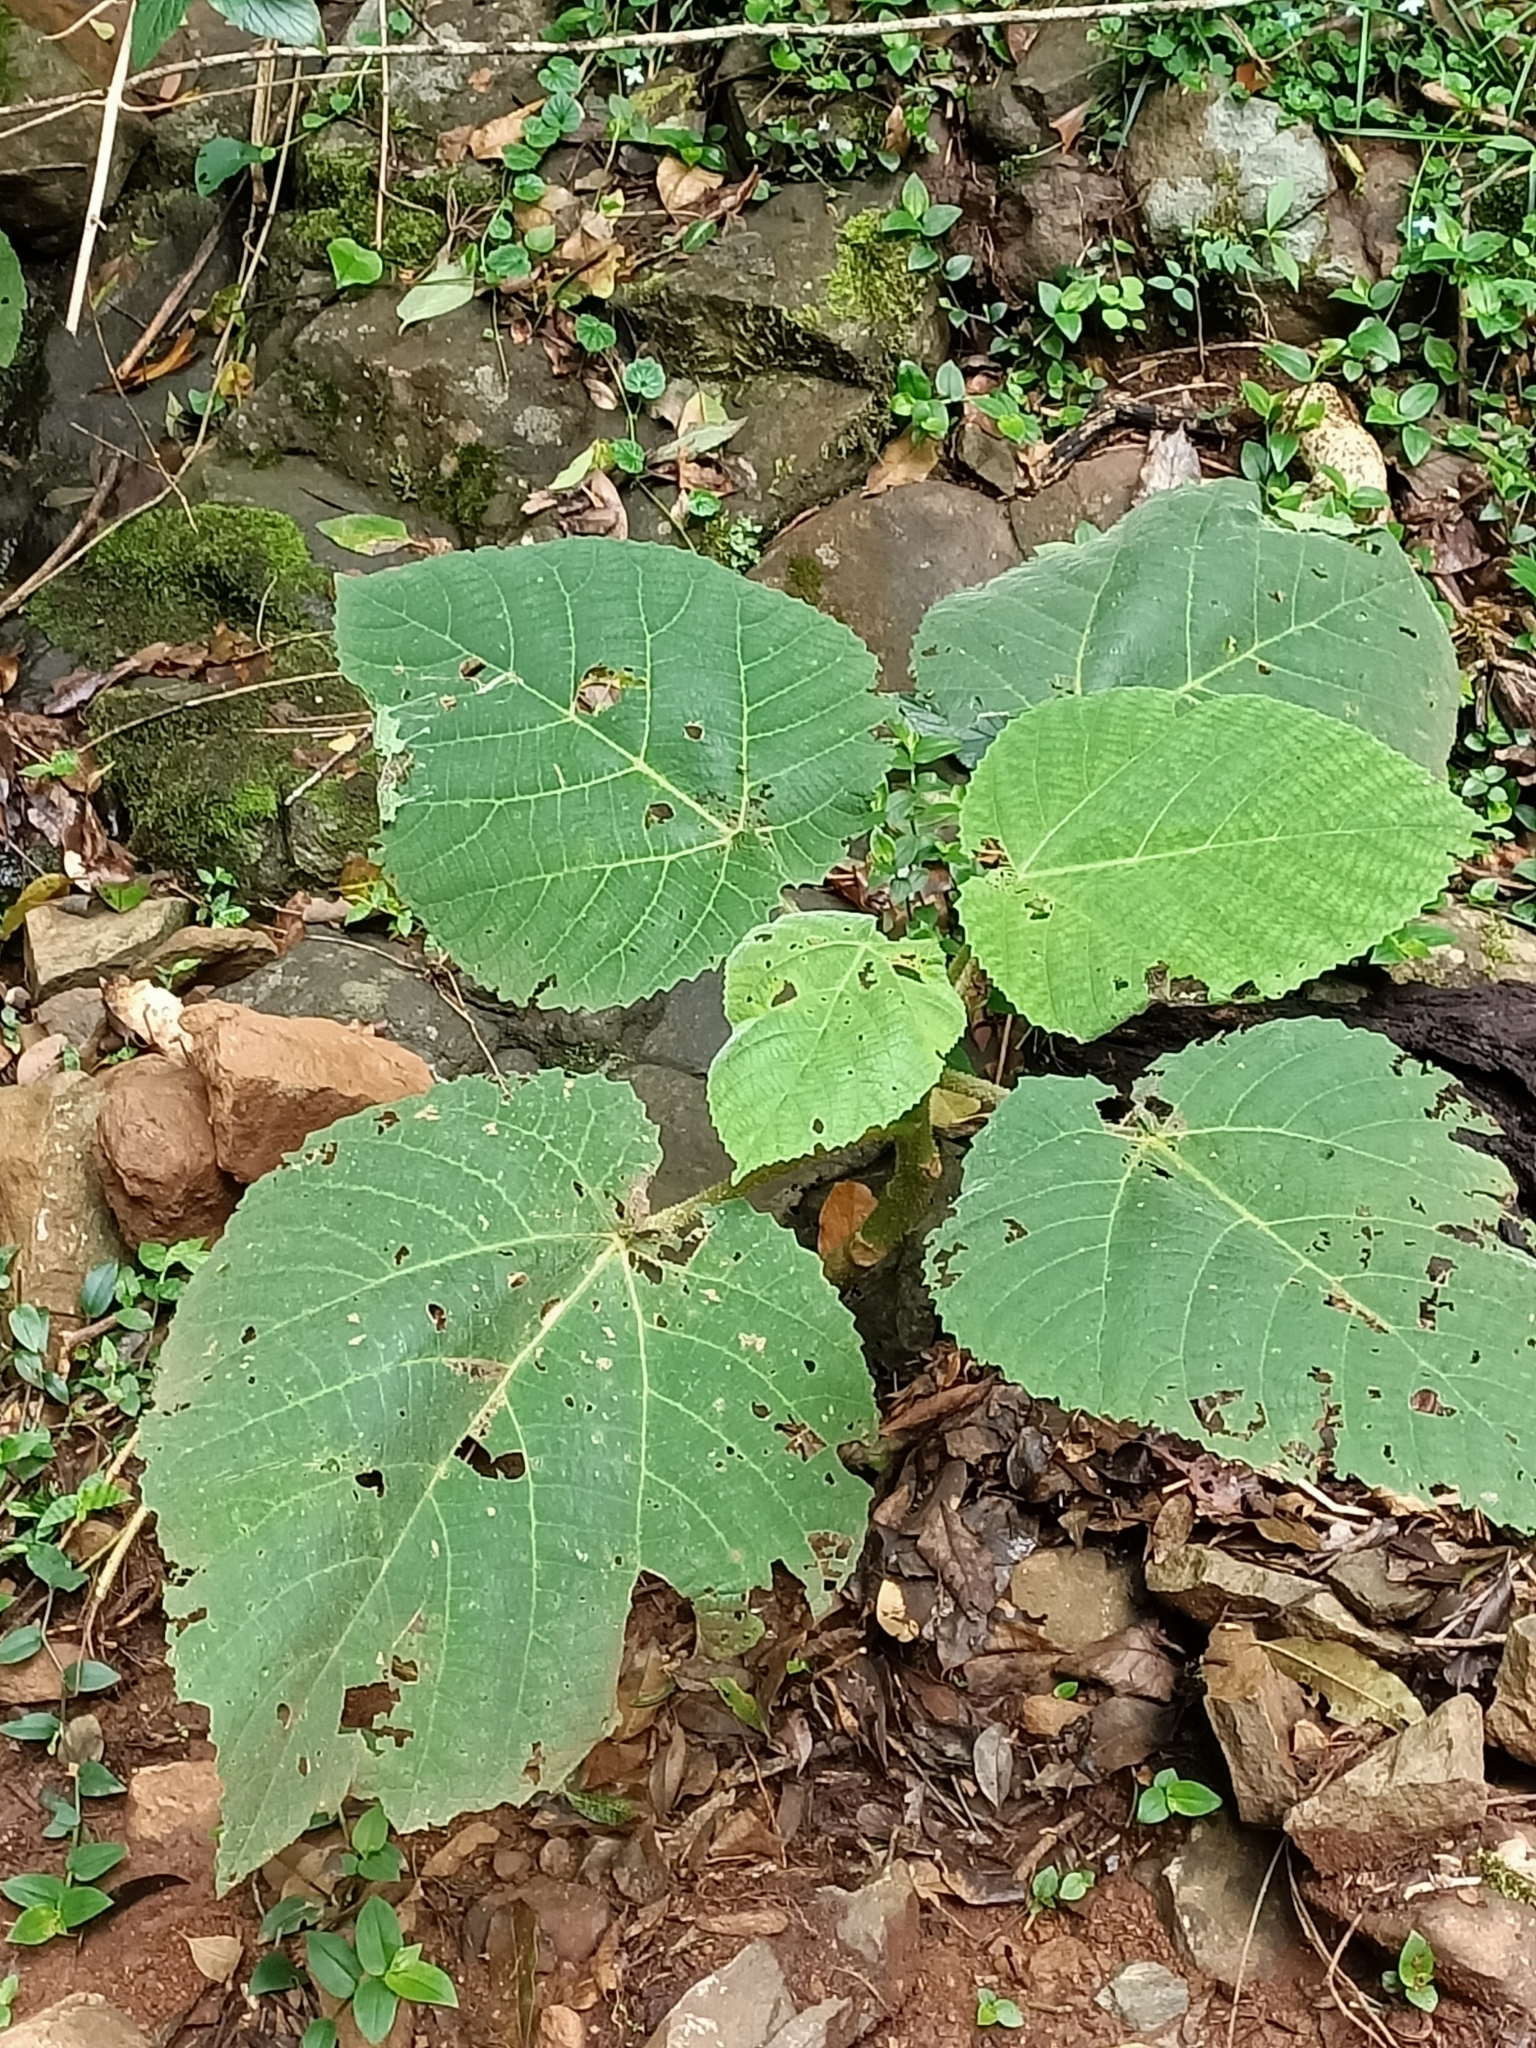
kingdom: Plantae
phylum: Tracheophyta
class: Magnoliopsida
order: Rosales
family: Urticaceae
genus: Dendrocnide
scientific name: Dendrocnide excelsa
